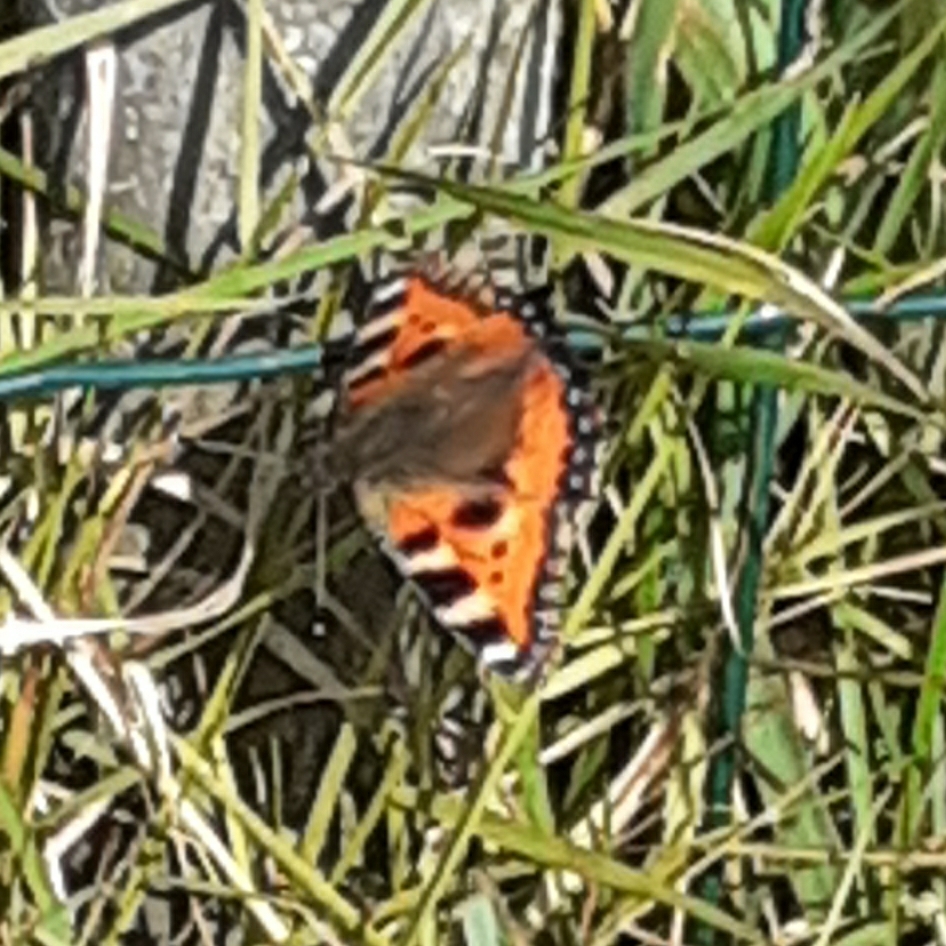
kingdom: Animalia
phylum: Arthropoda
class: Insecta
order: Lepidoptera
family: Nymphalidae
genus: Aglais
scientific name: Aglais urticae
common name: Small tortoiseshell
